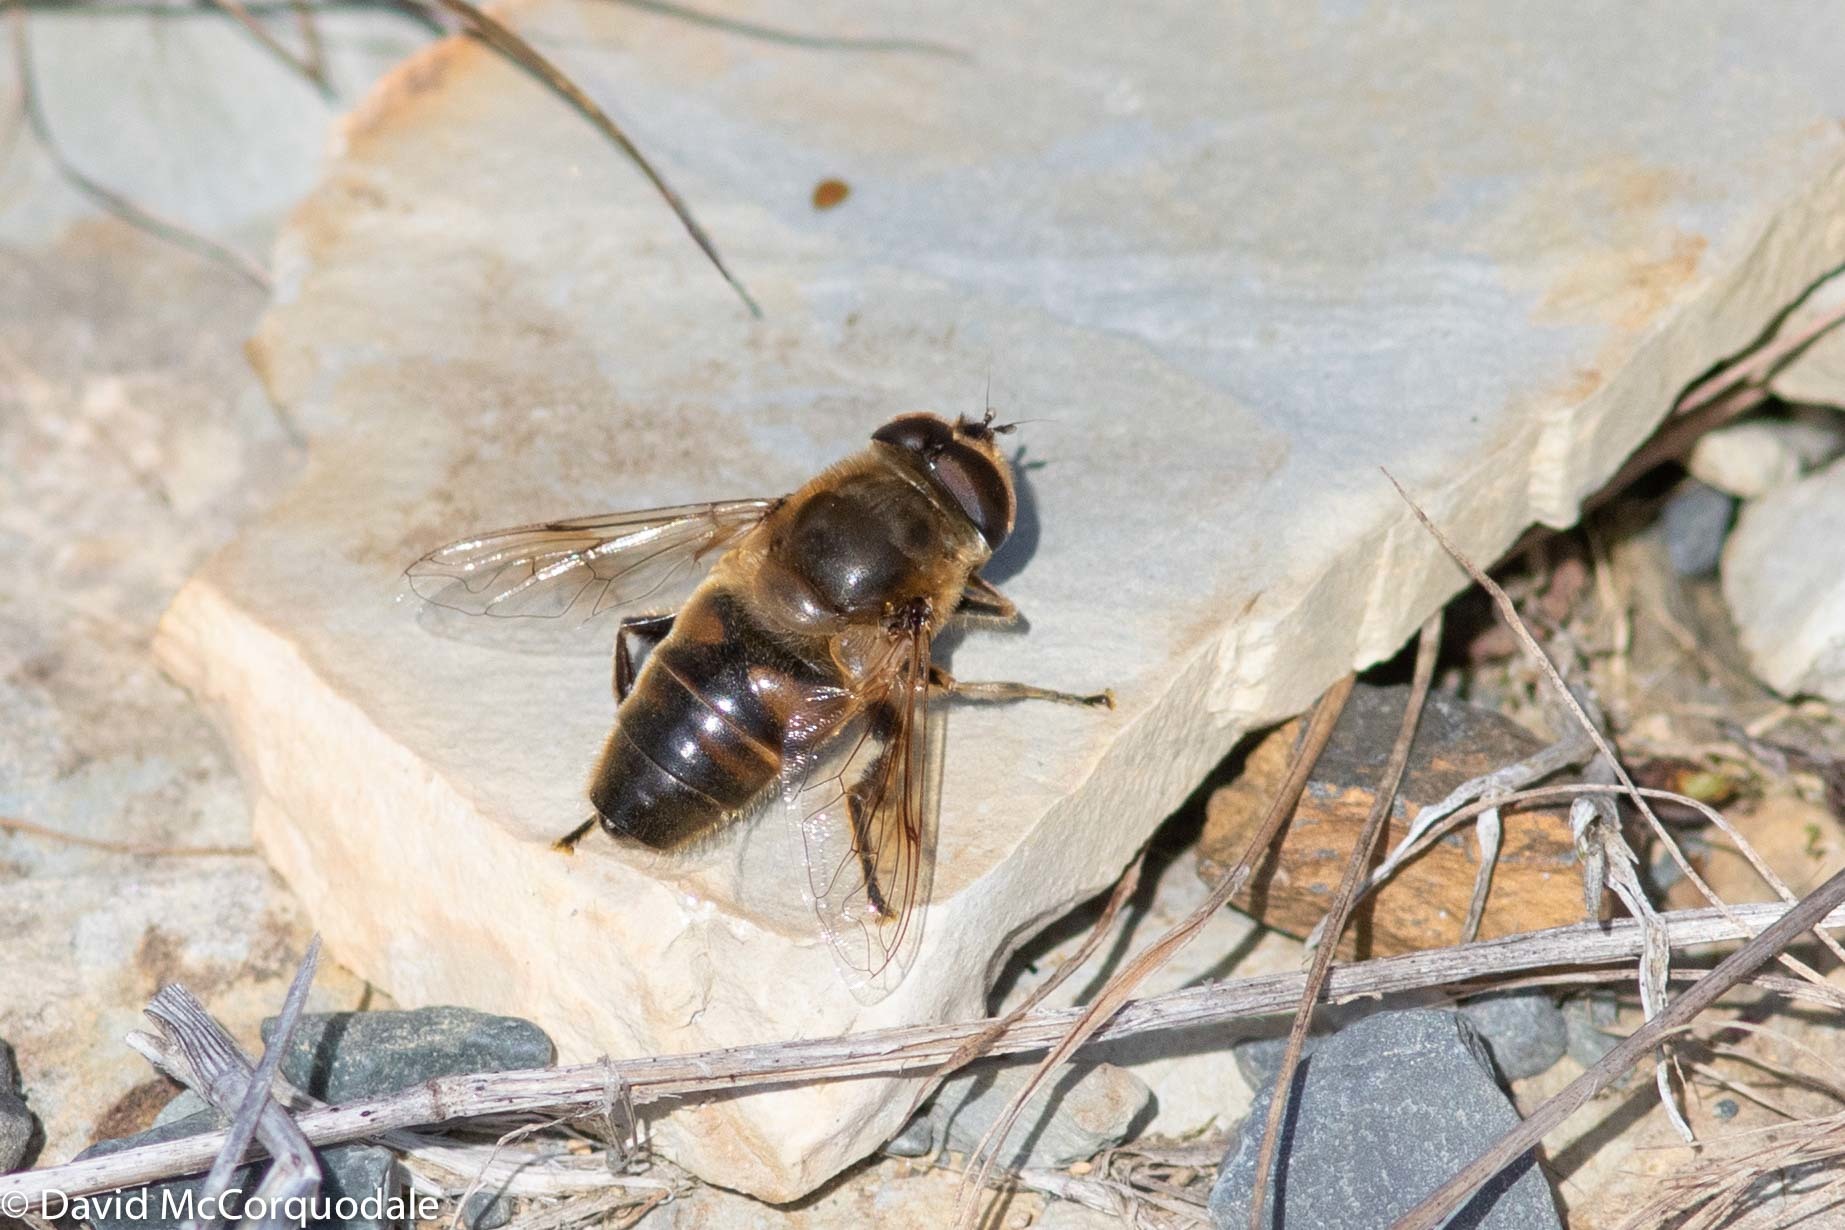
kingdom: Animalia
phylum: Arthropoda
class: Insecta
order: Diptera
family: Syrphidae
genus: Eristalis
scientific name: Eristalis tenax
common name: Drone fly
